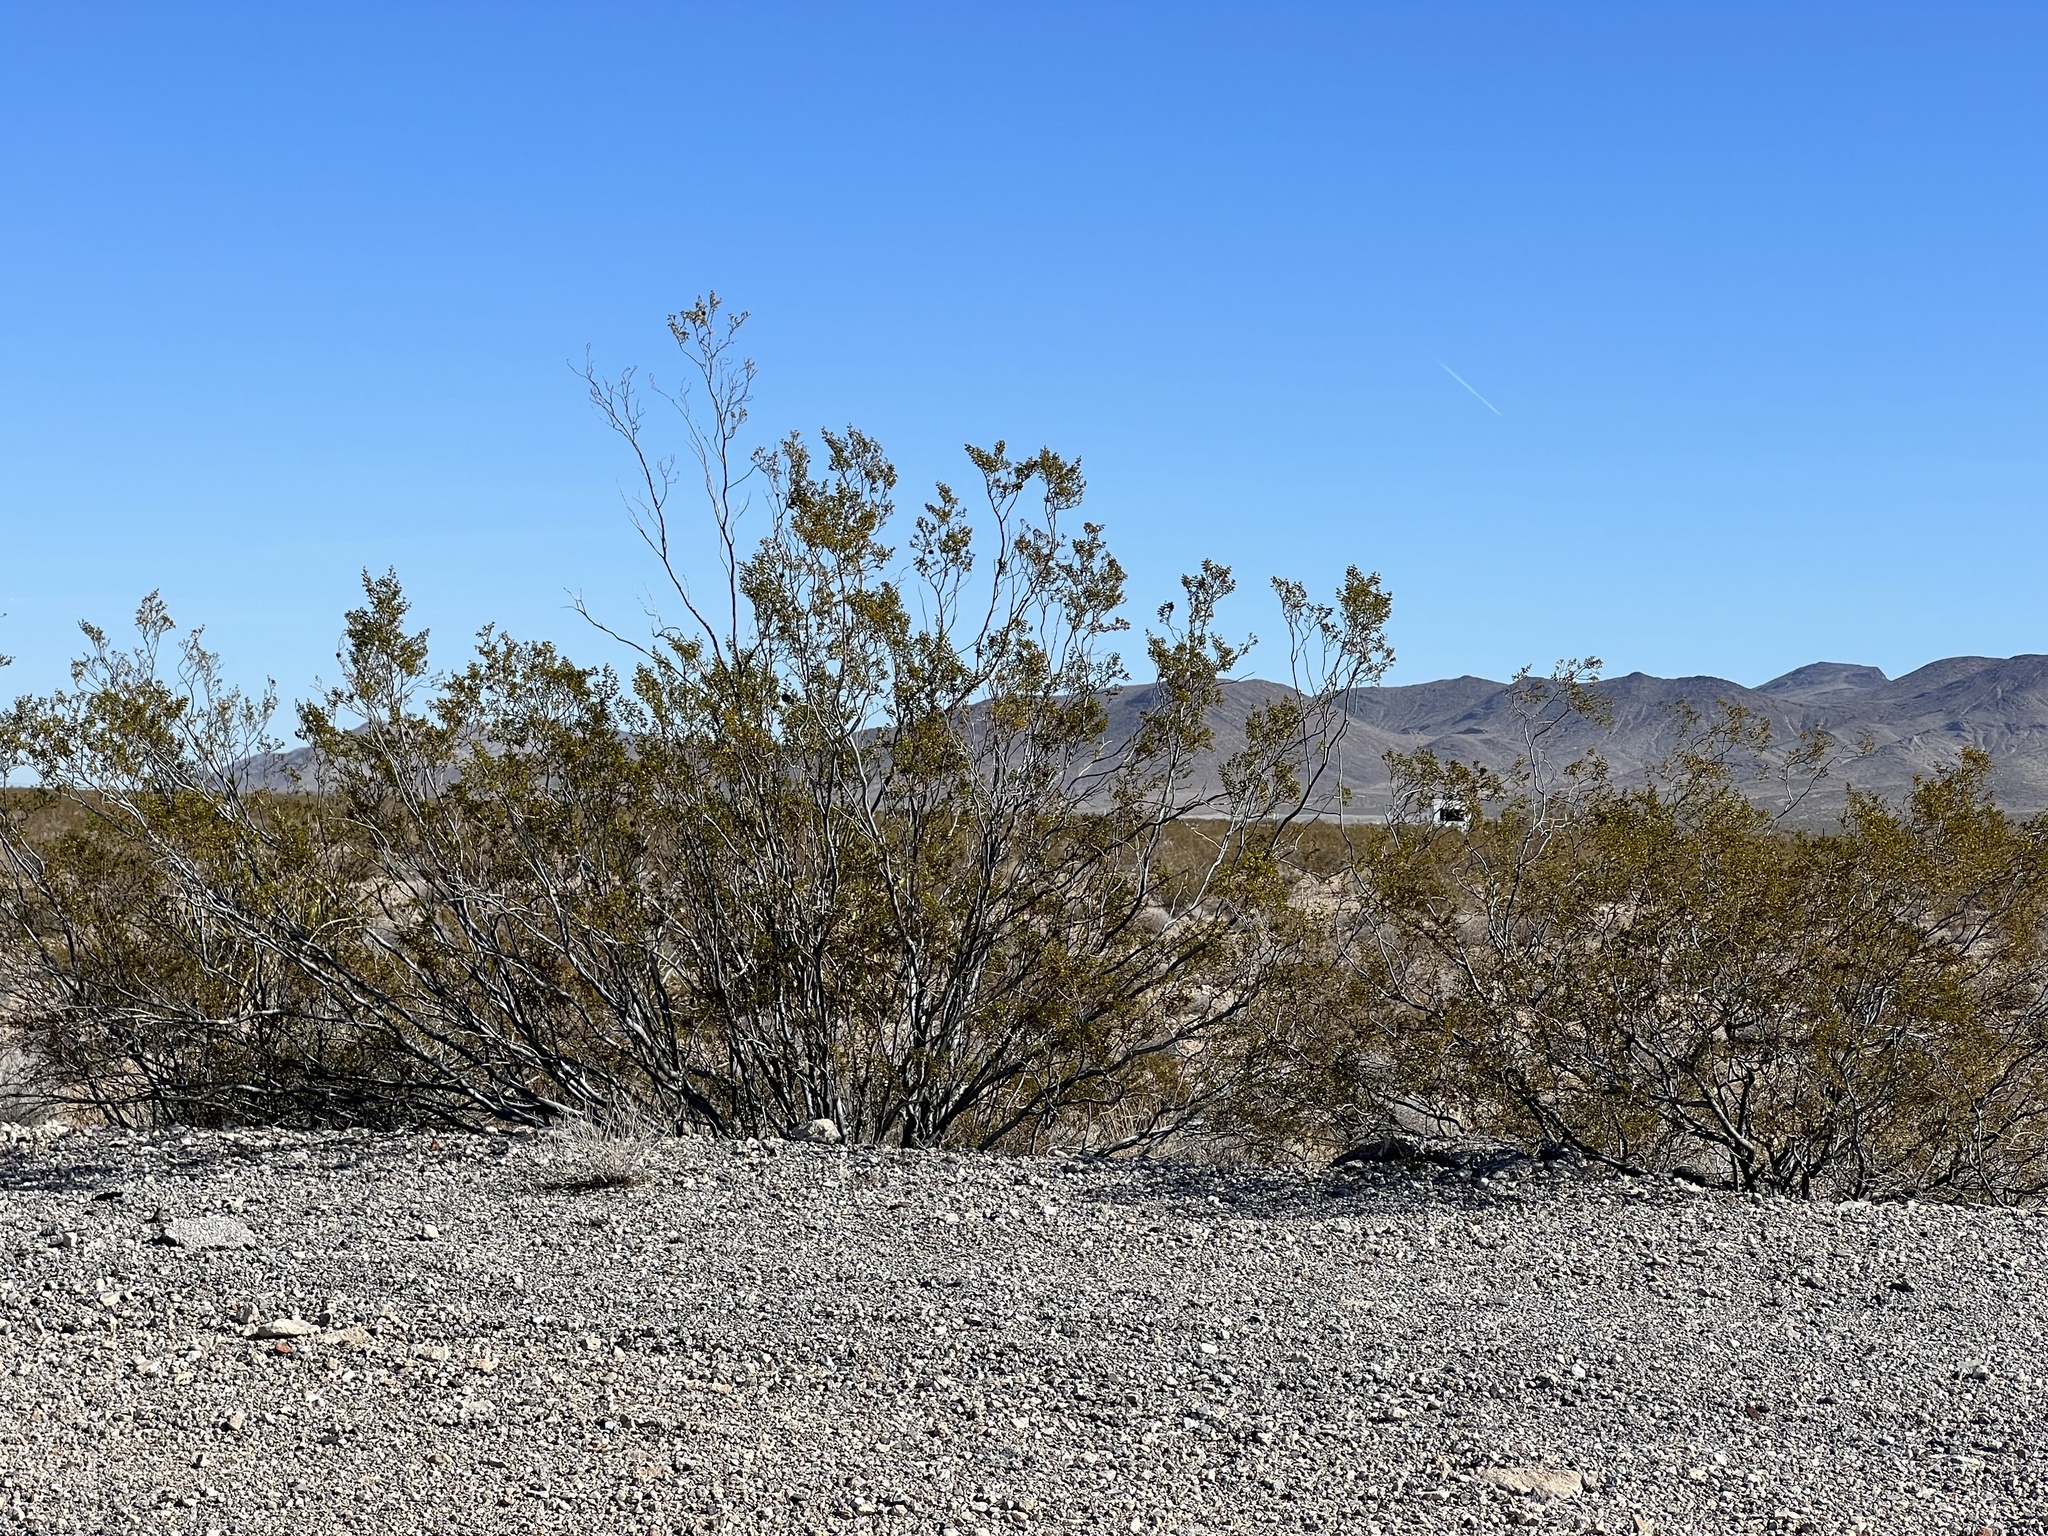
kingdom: Plantae
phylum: Tracheophyta
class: Magnoliopsida
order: Zygophyllales
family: Zygophyllaceae
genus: Larrea
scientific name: Larrea tridentata
